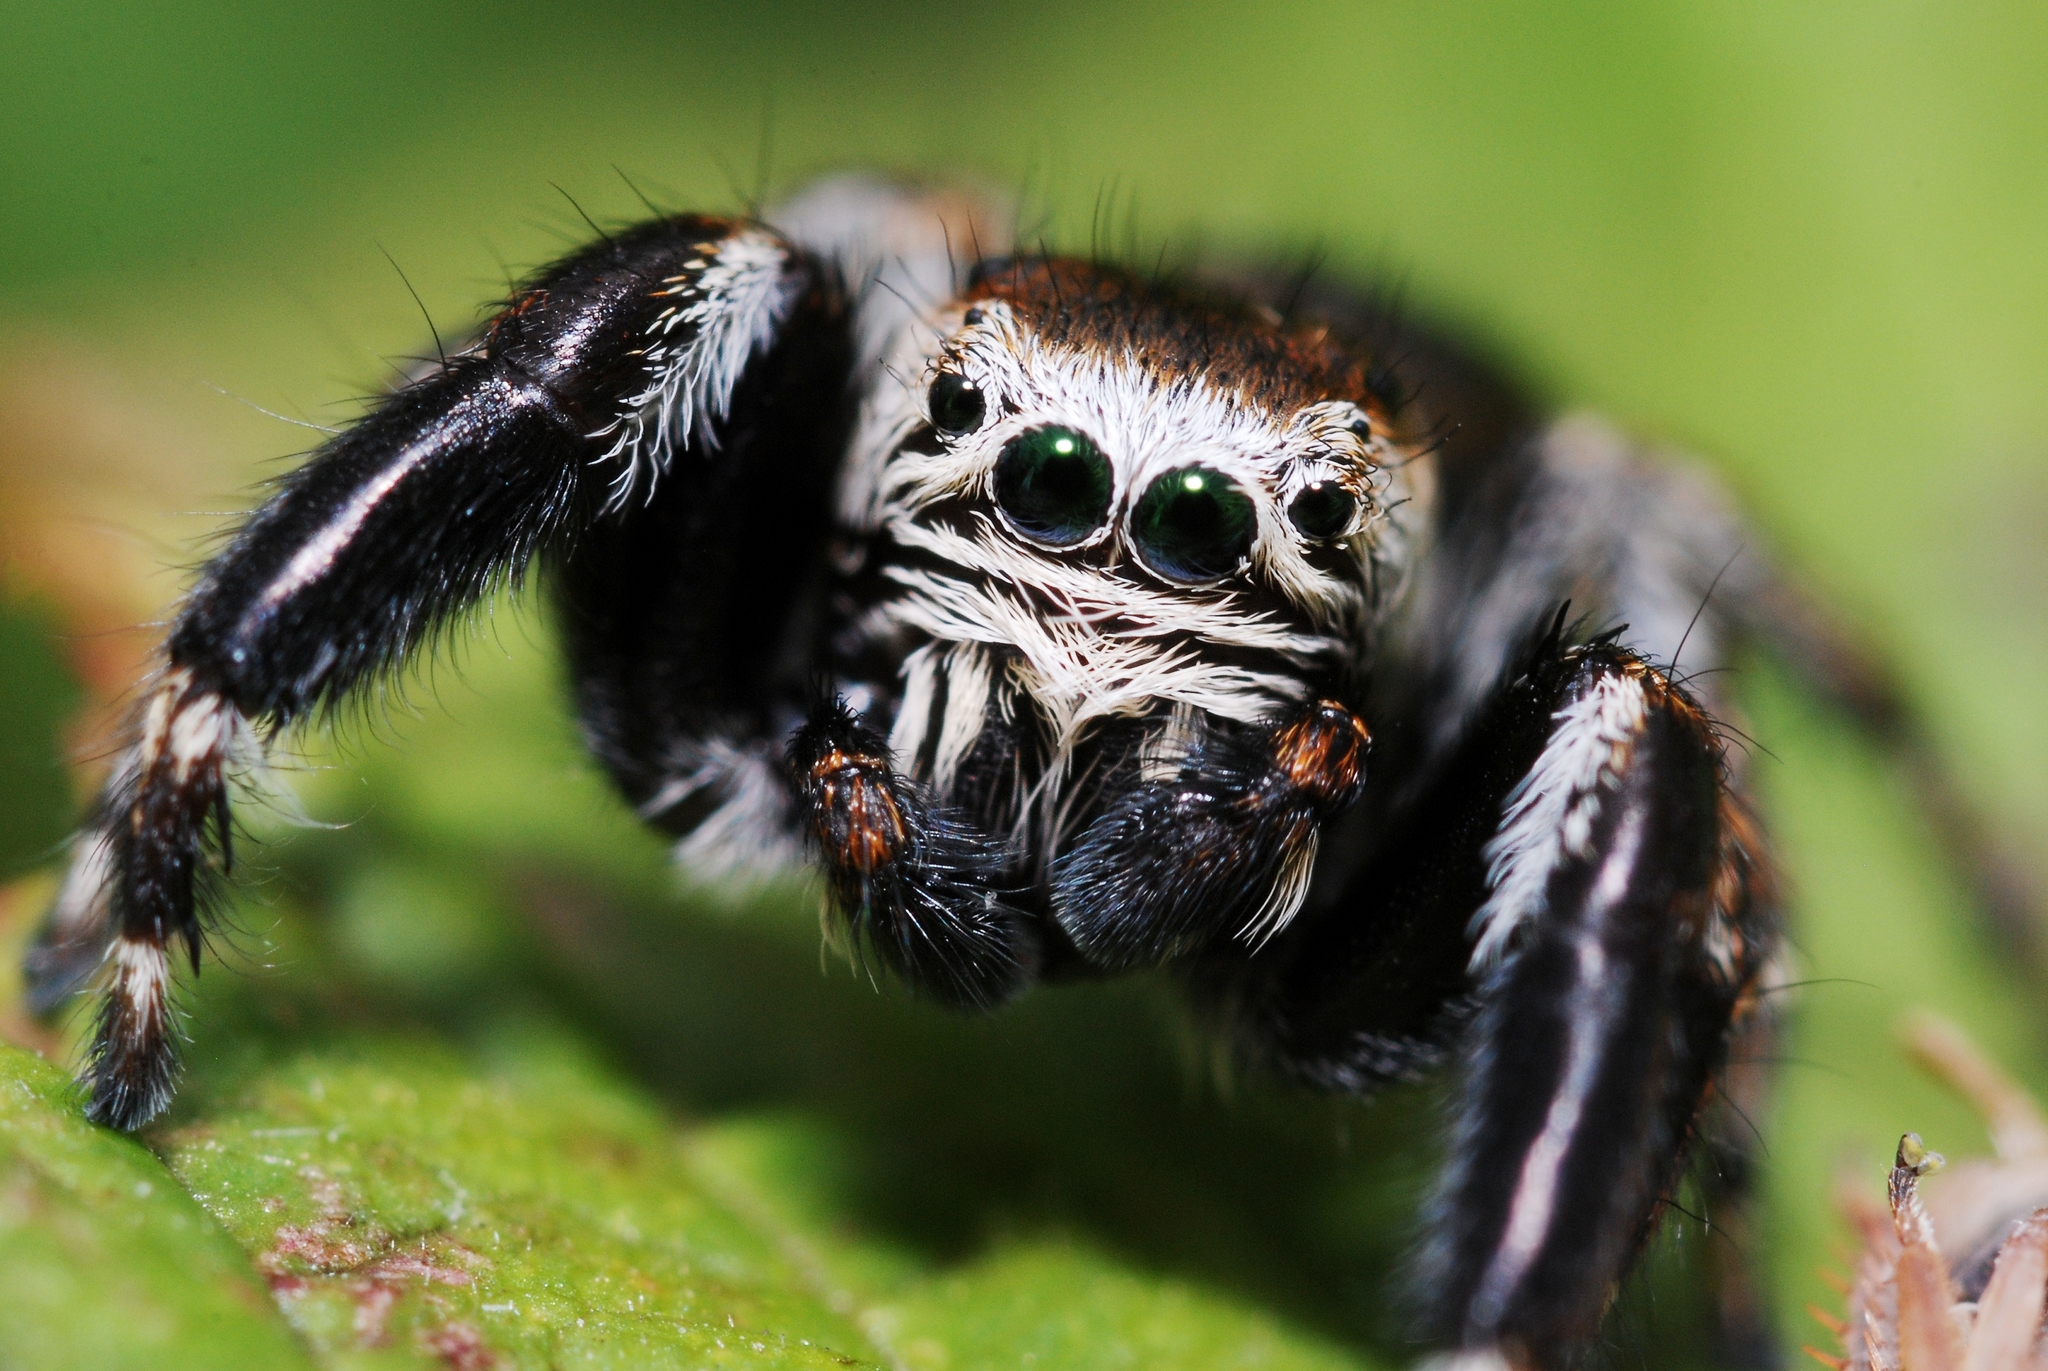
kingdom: Animalia
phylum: Arthropoda
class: Arachnida
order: Araneae
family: Salticidae
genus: Evarcha
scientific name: Evarcha arcuata
